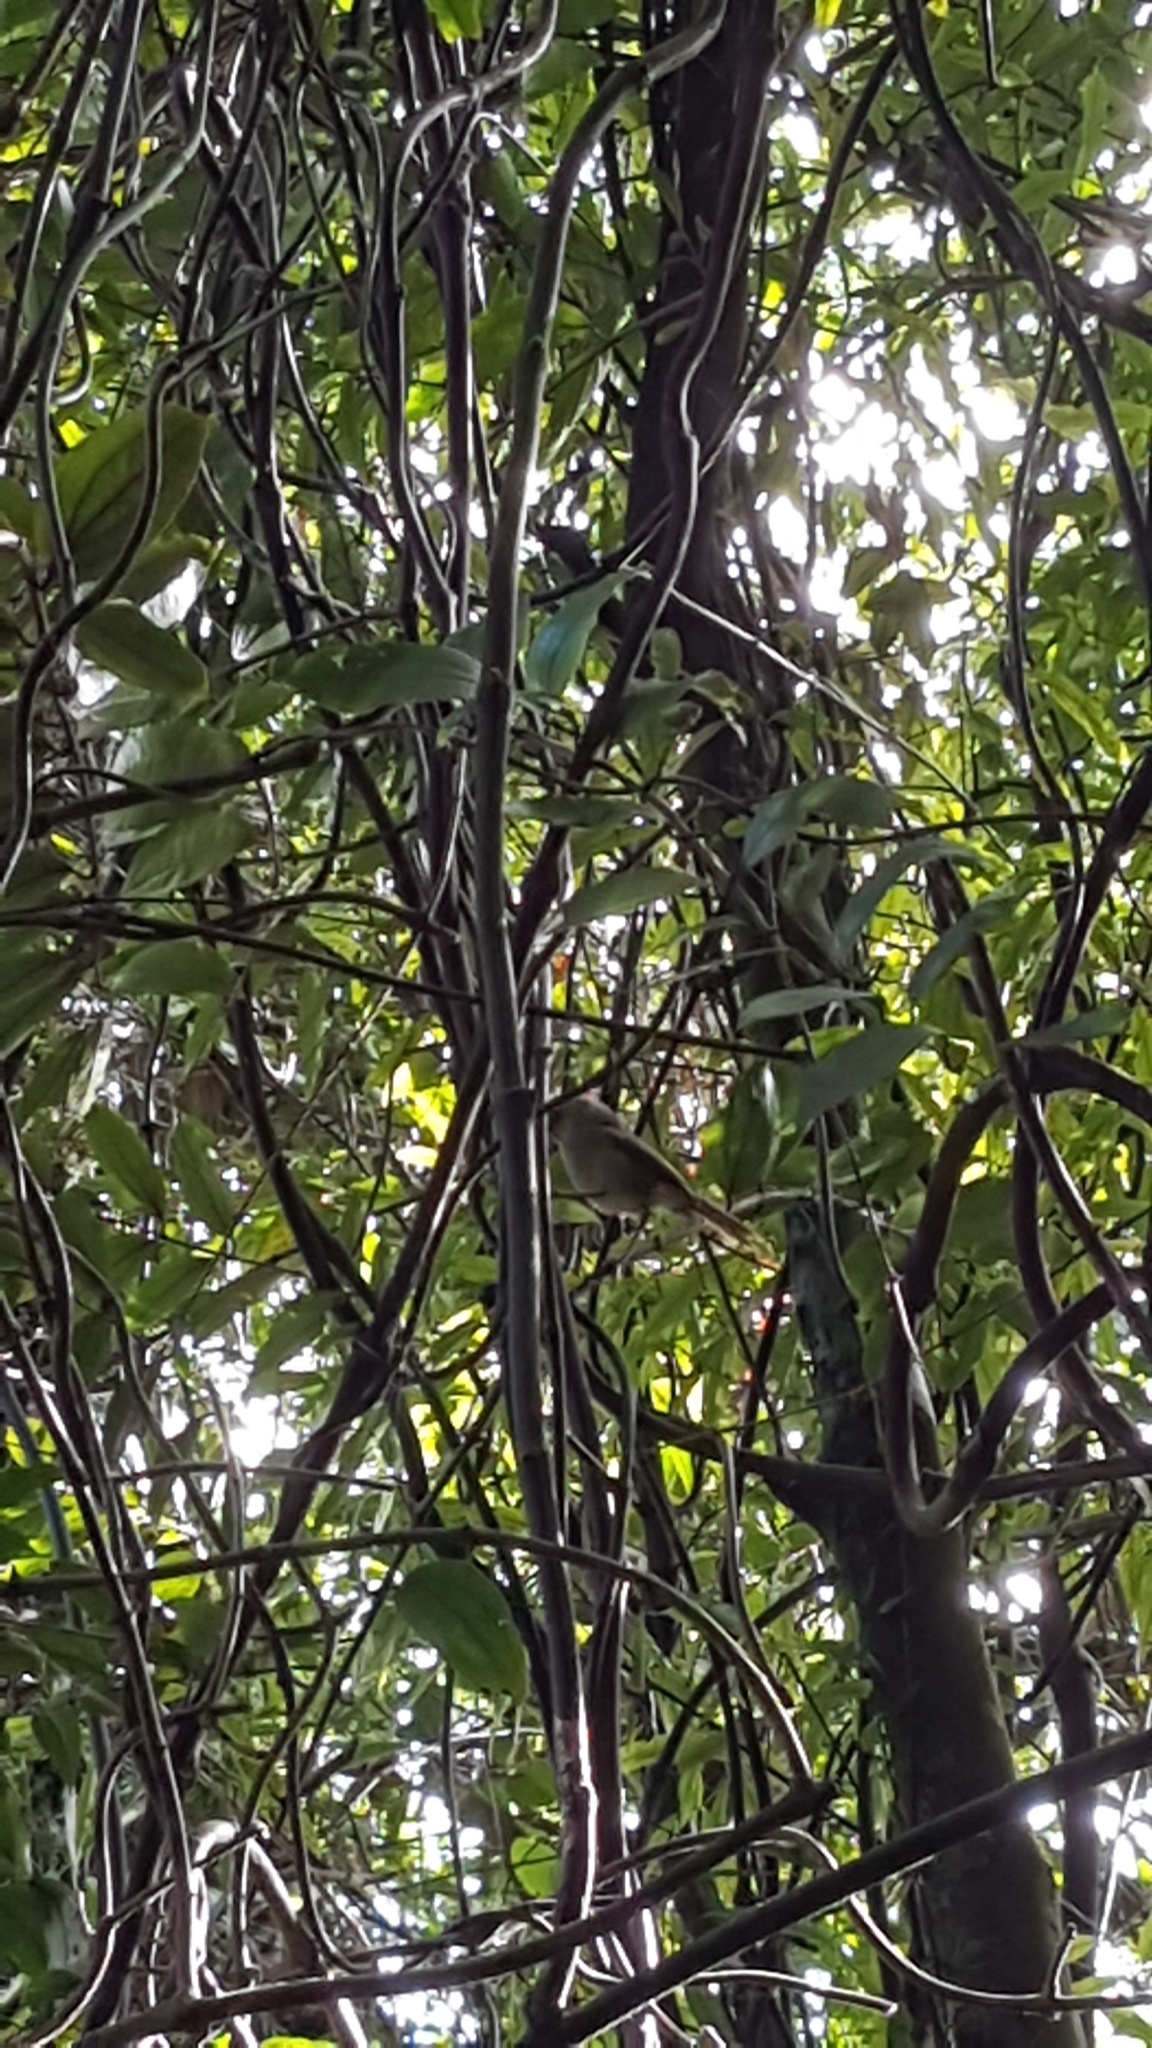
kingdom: Animalia
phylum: Chordata
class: Aves
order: Passeriformes
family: Acanthizidae
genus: Mohoua
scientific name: Mohoua albicilla
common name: Whitehead
